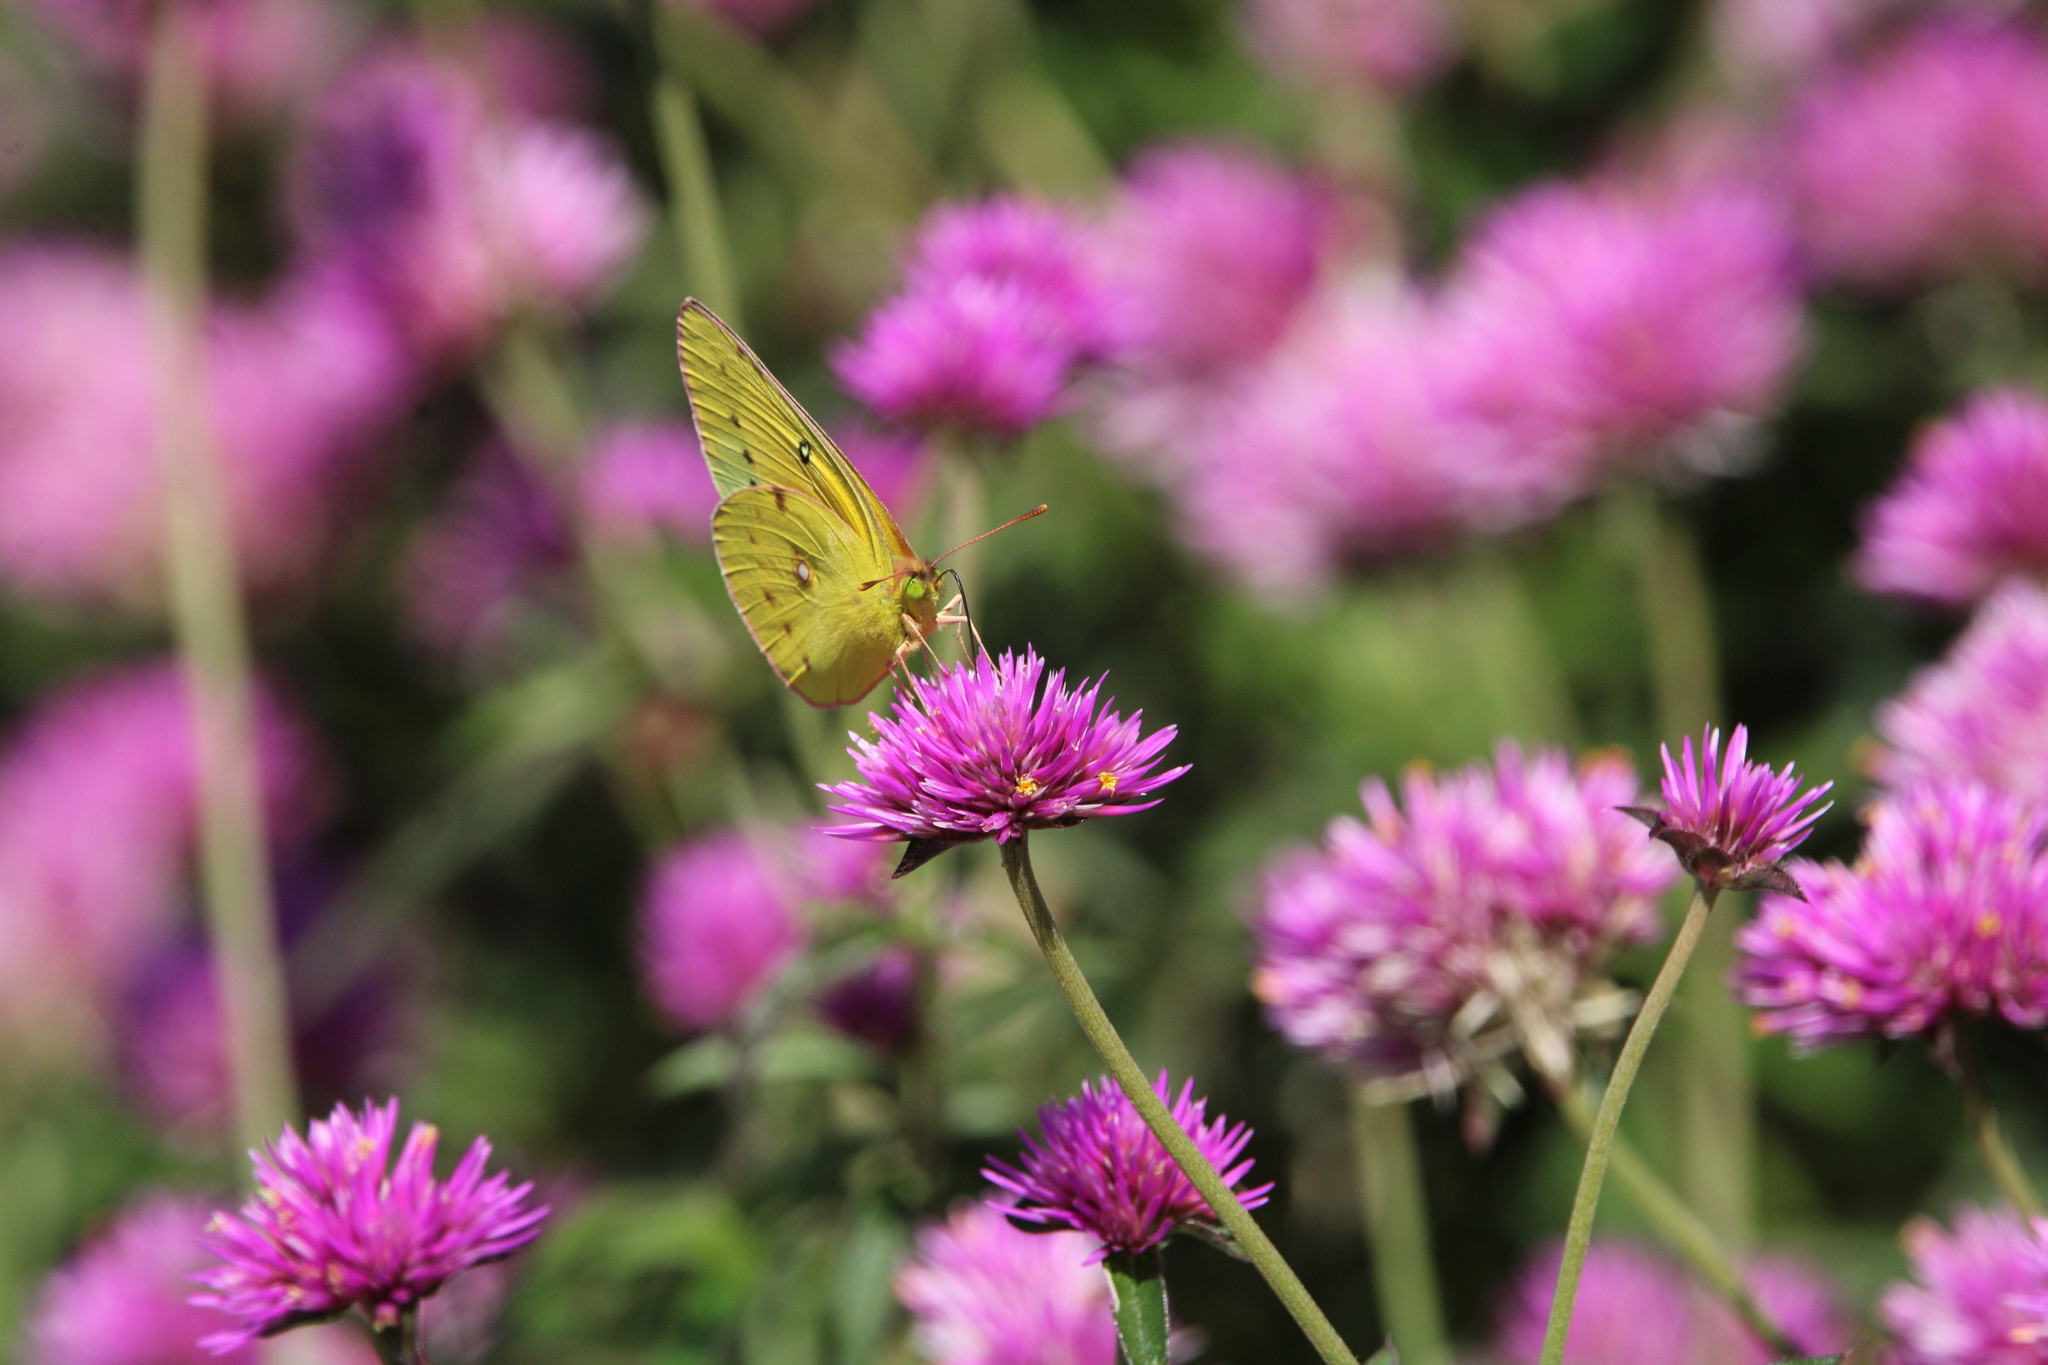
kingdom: Animalia
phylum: Arthropoda
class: Insecta
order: Lepidoptera
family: Pieridae
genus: Colias
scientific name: Colias eurytheme
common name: Alfalfa butterfly
